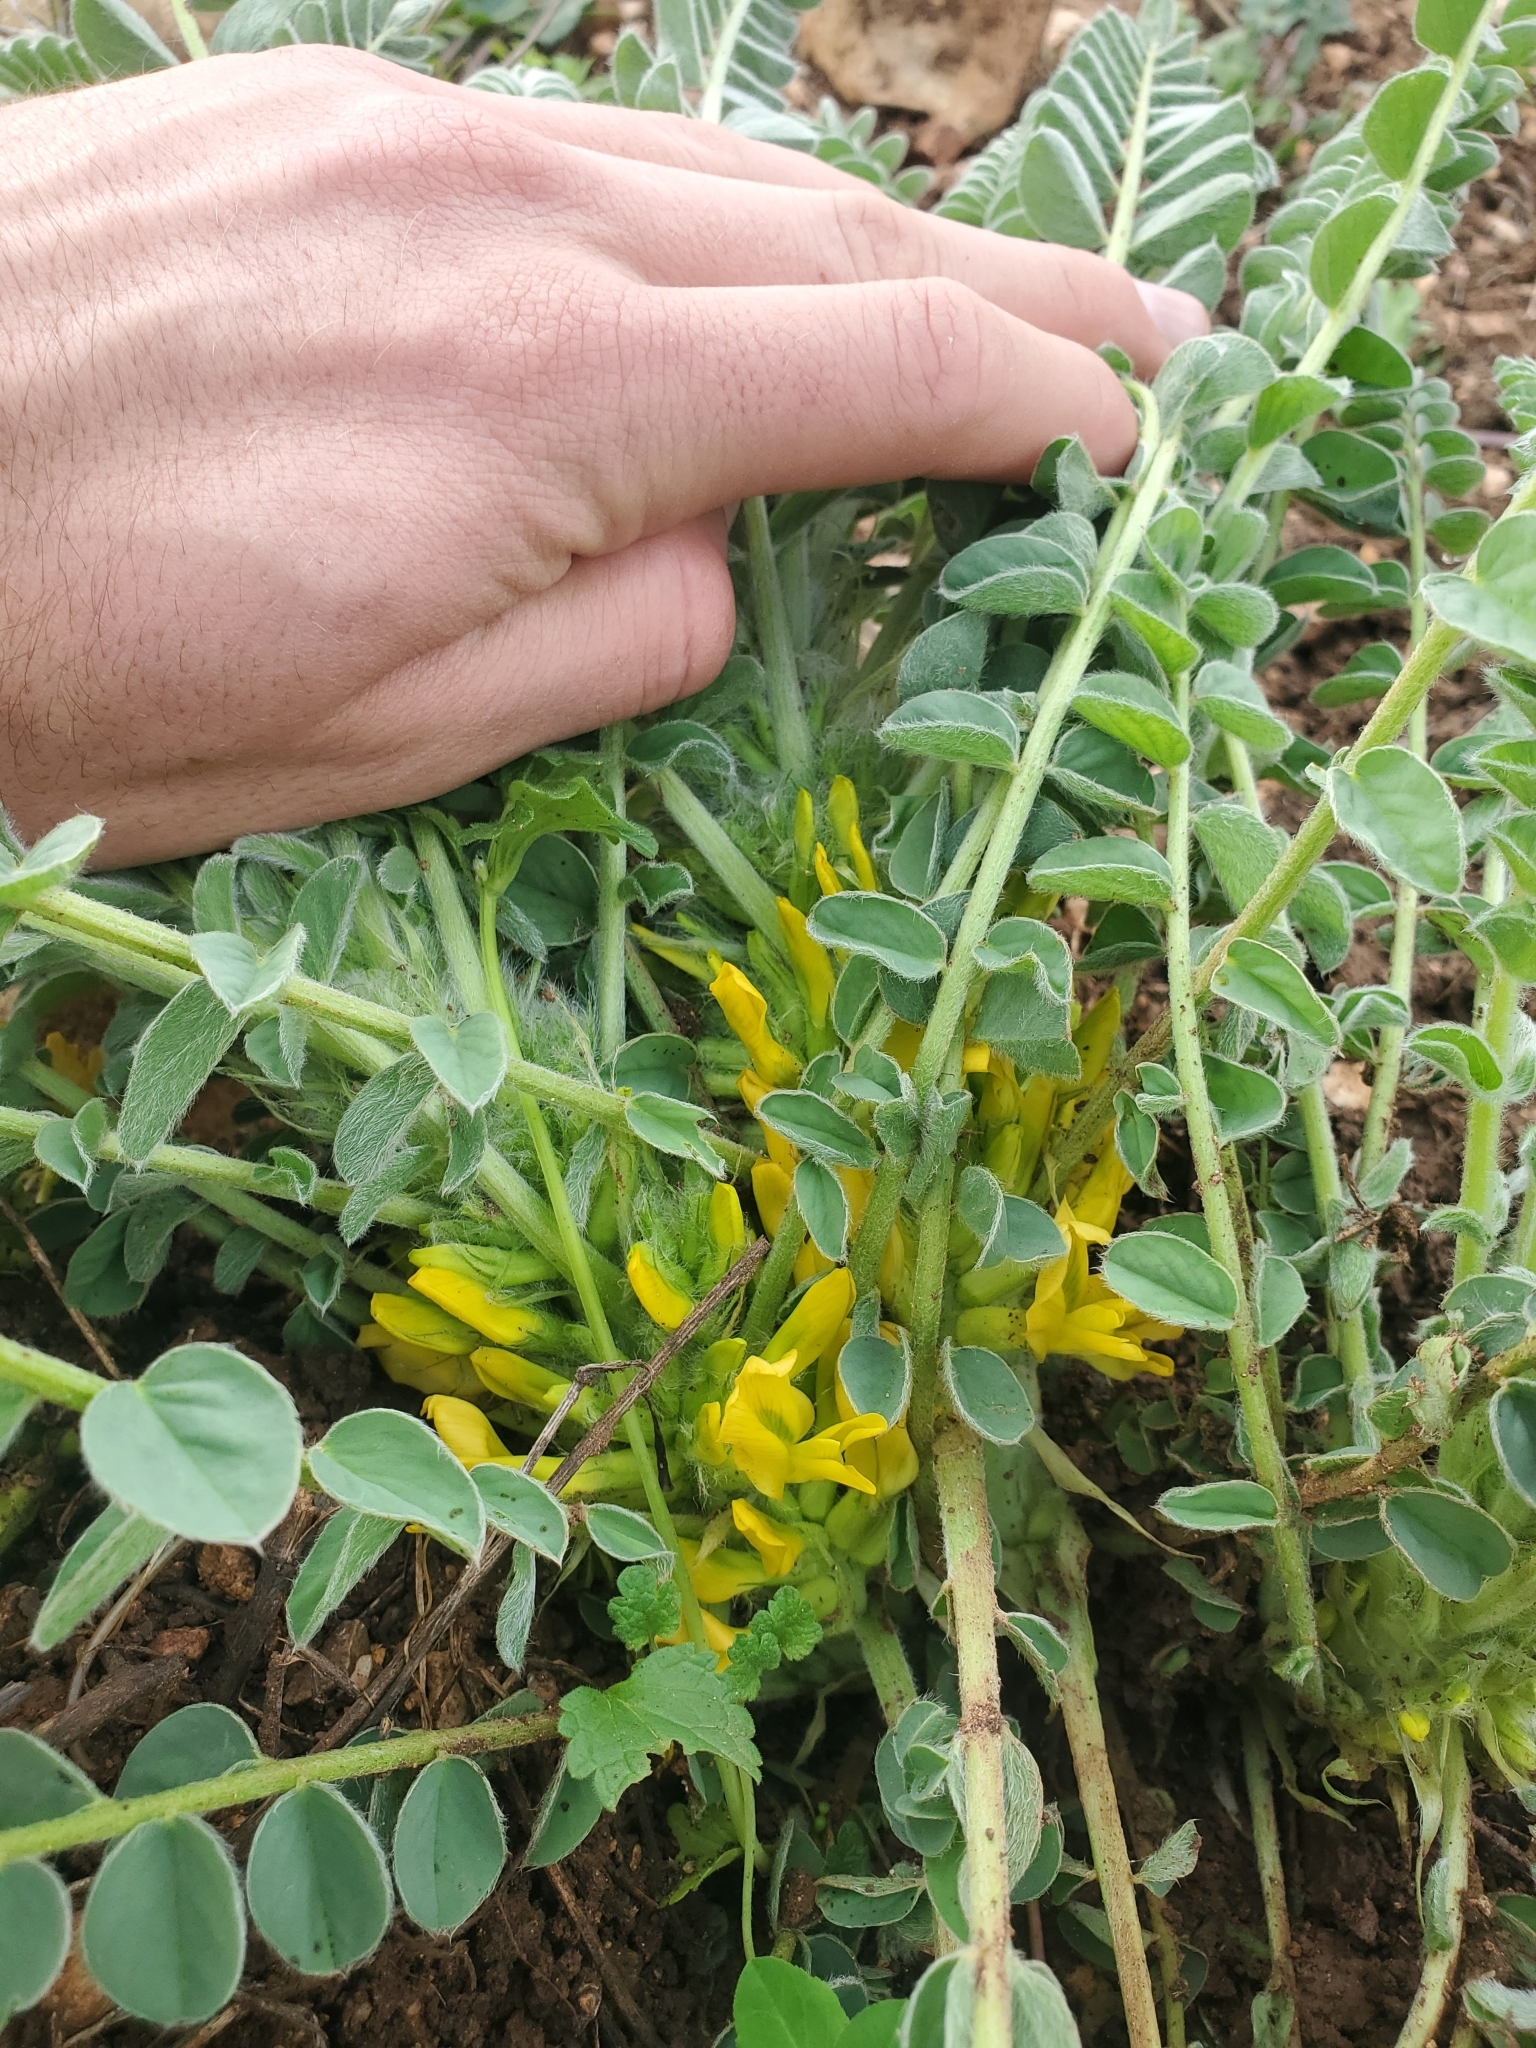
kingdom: Plantae
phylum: Tracheophyta
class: Magnoliopsida
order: Fabales
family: Fabaceae
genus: Astragalus
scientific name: Astragalus macrocarpus
